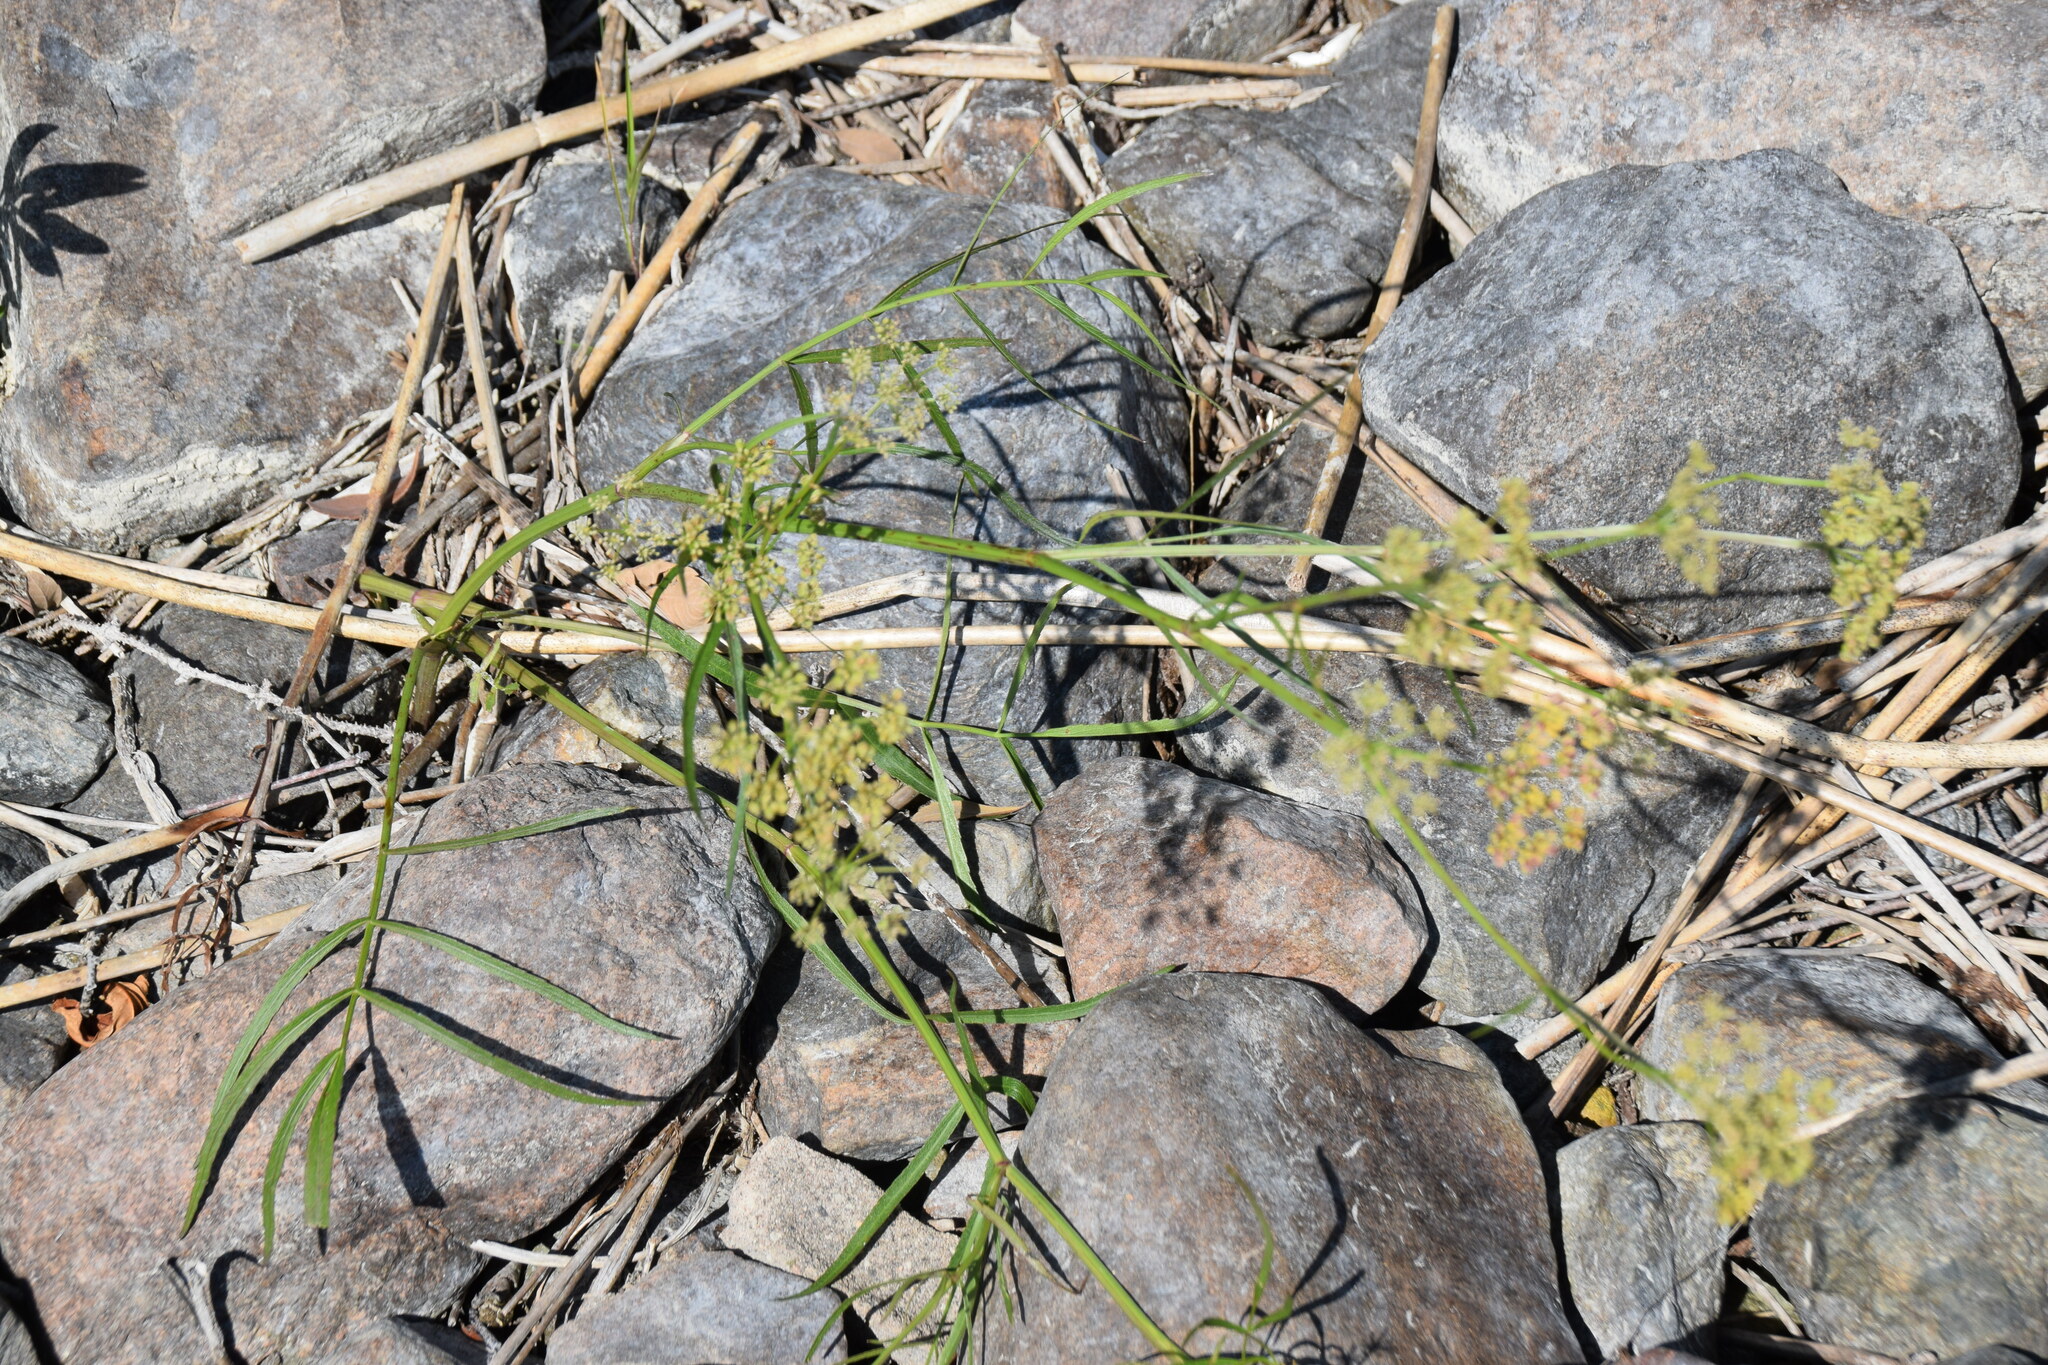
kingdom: Plantae
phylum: Tracheophyta
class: Magnoliopsida
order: Apiales
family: Apiaceae
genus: Sium
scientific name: Sium suave
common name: Hemlock water-parsnip
